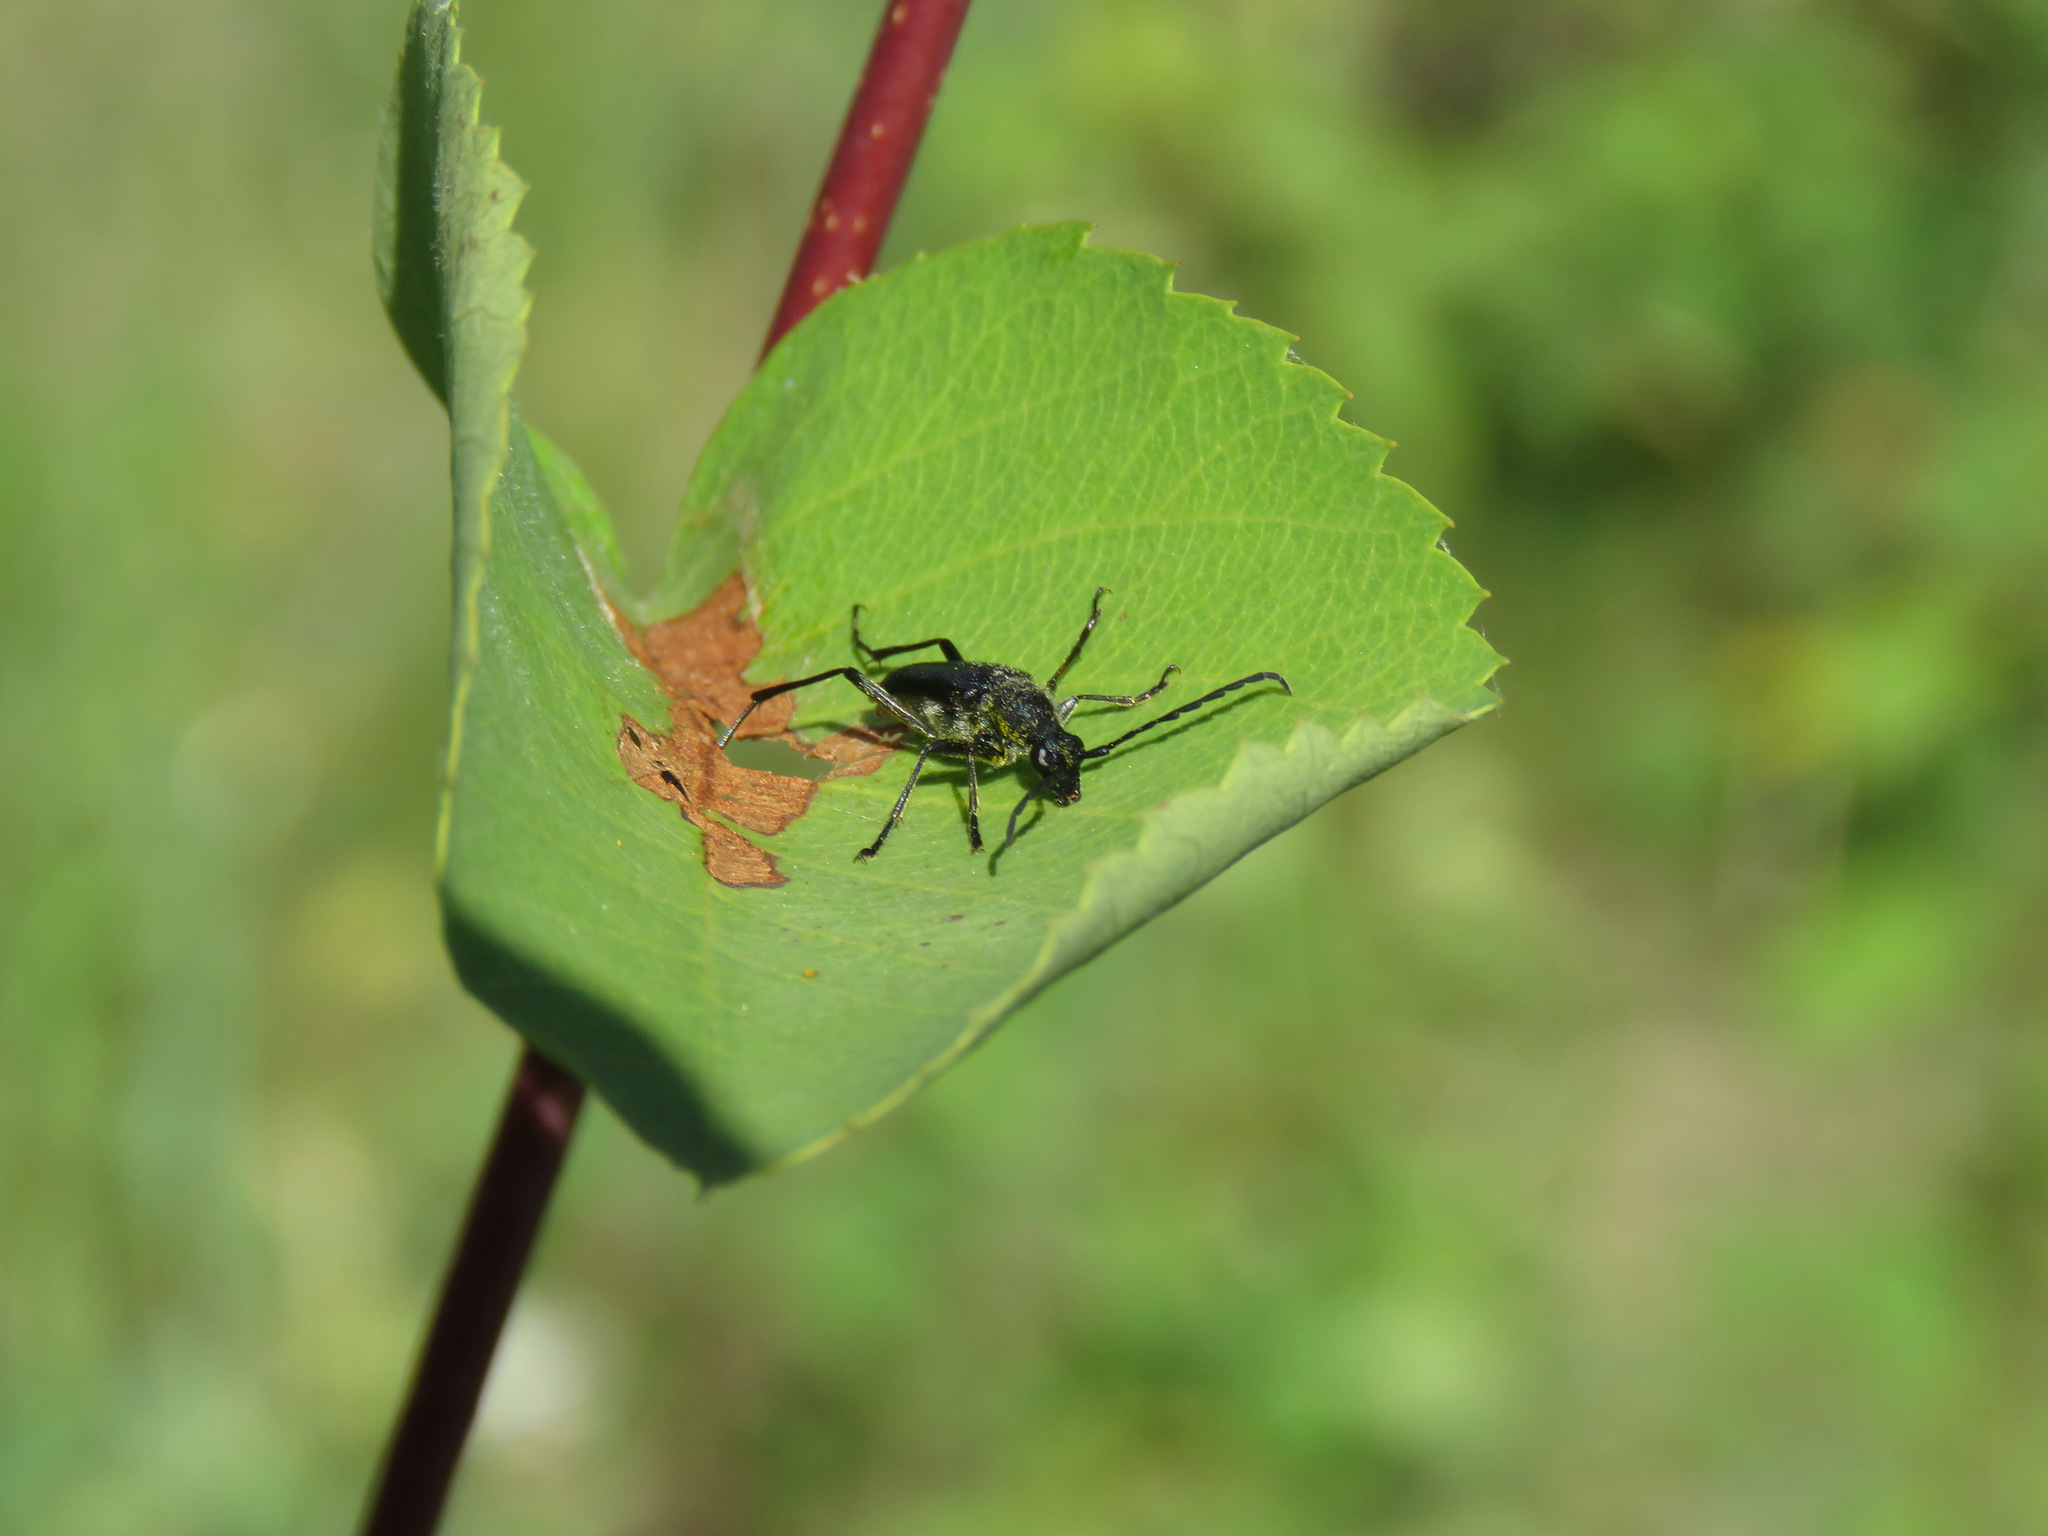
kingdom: Animalia
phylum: Arthropoda
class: Insecta
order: Coleoptera
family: Cerambycidae
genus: Anastrangalia
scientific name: Anastrangalia laetifica
